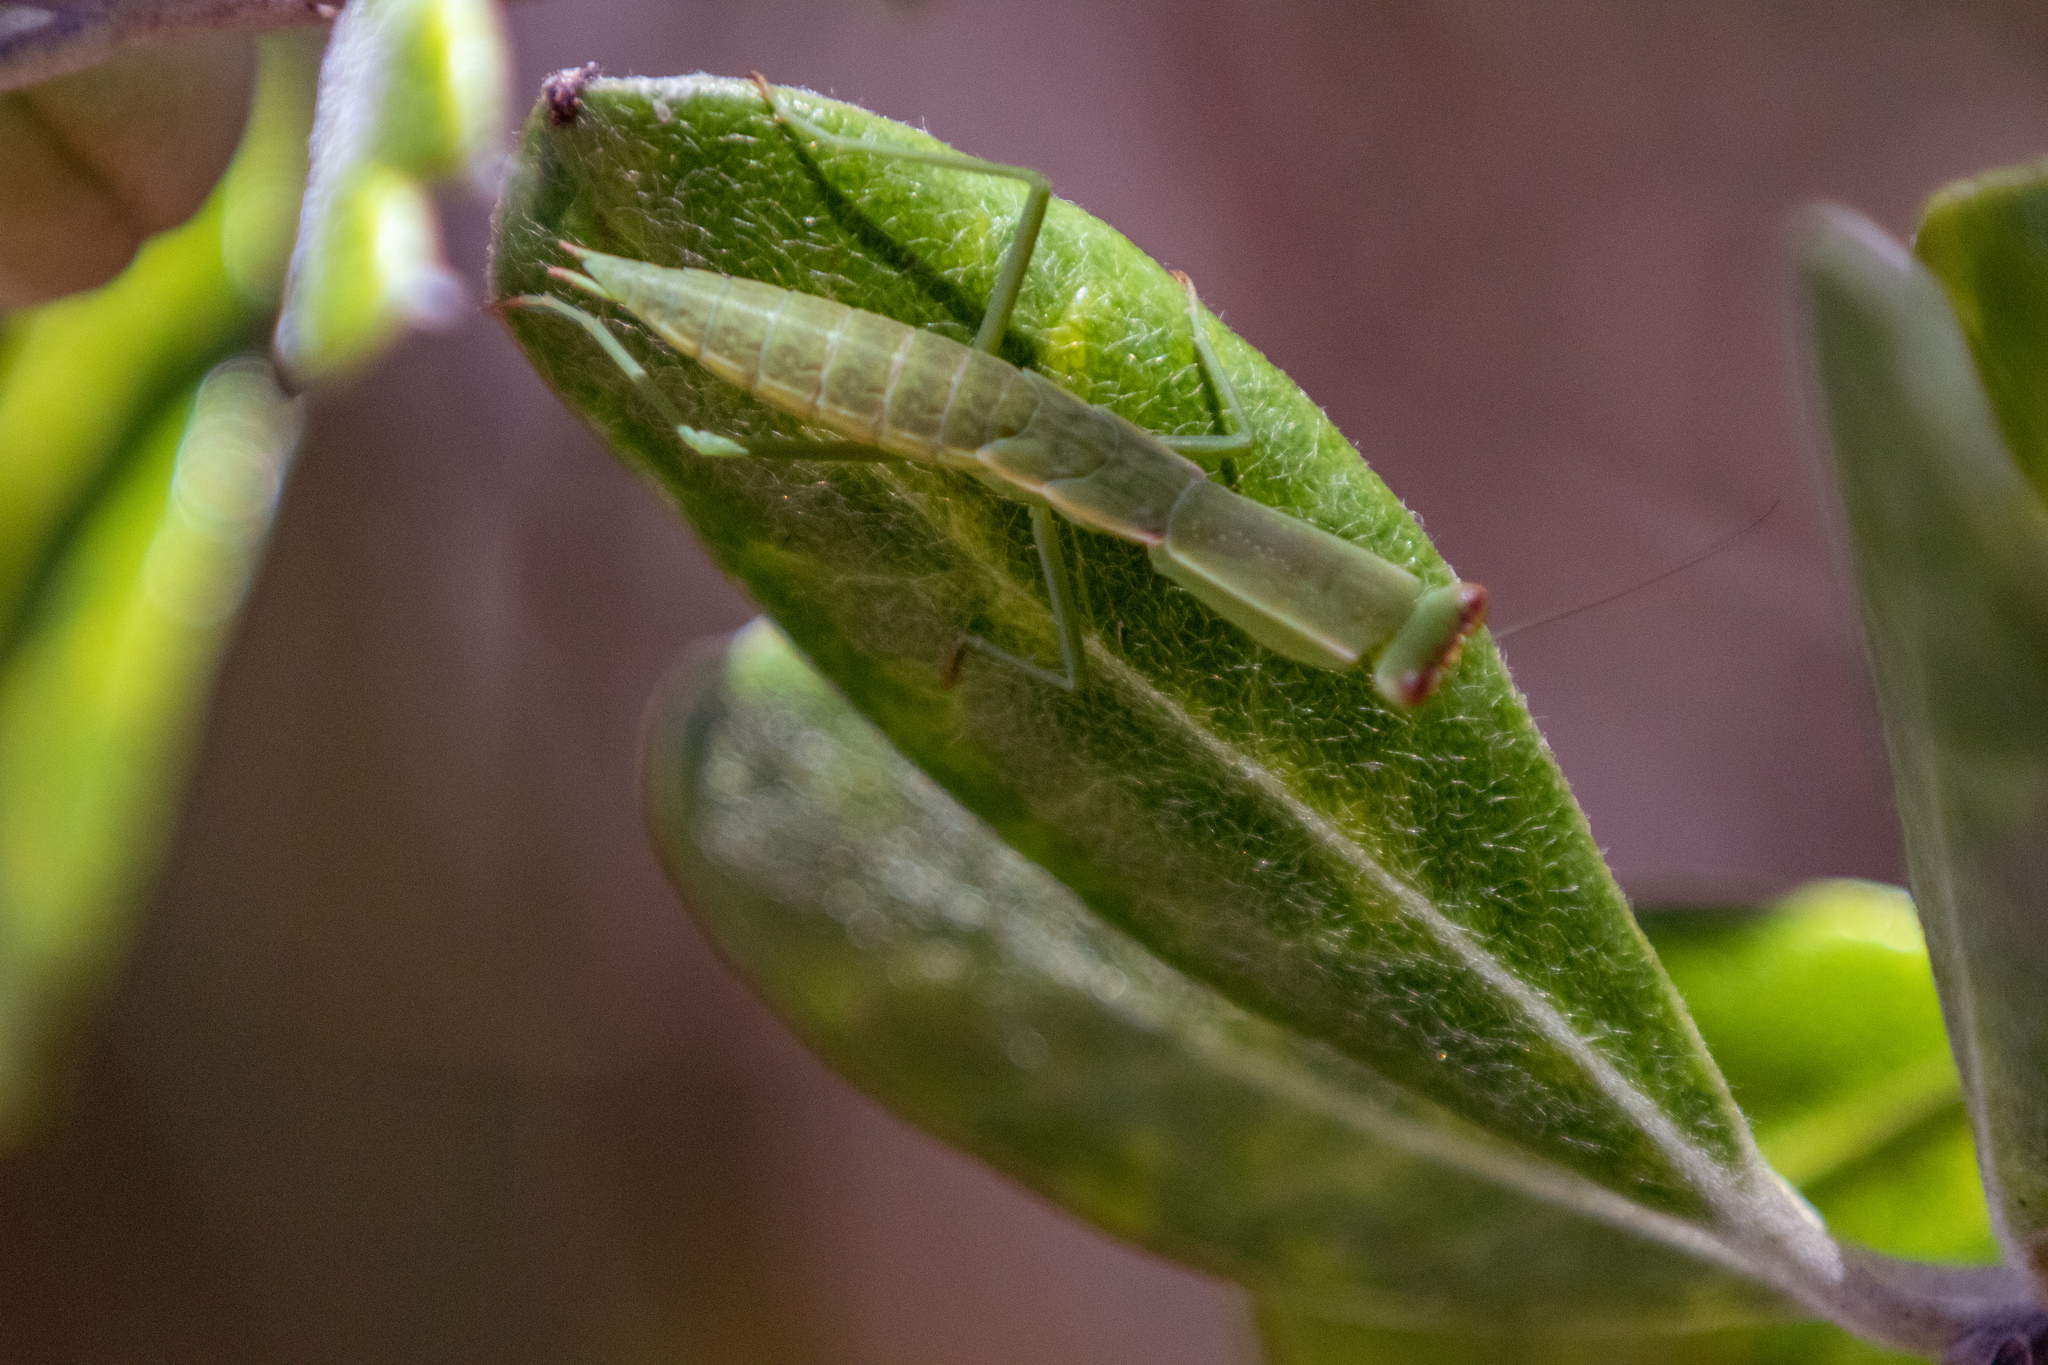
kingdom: Animalia
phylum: Arthropoda
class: Insecta
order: Mantodea
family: Mantidae
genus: Orthodera
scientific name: Orthodera novaezealandiae
